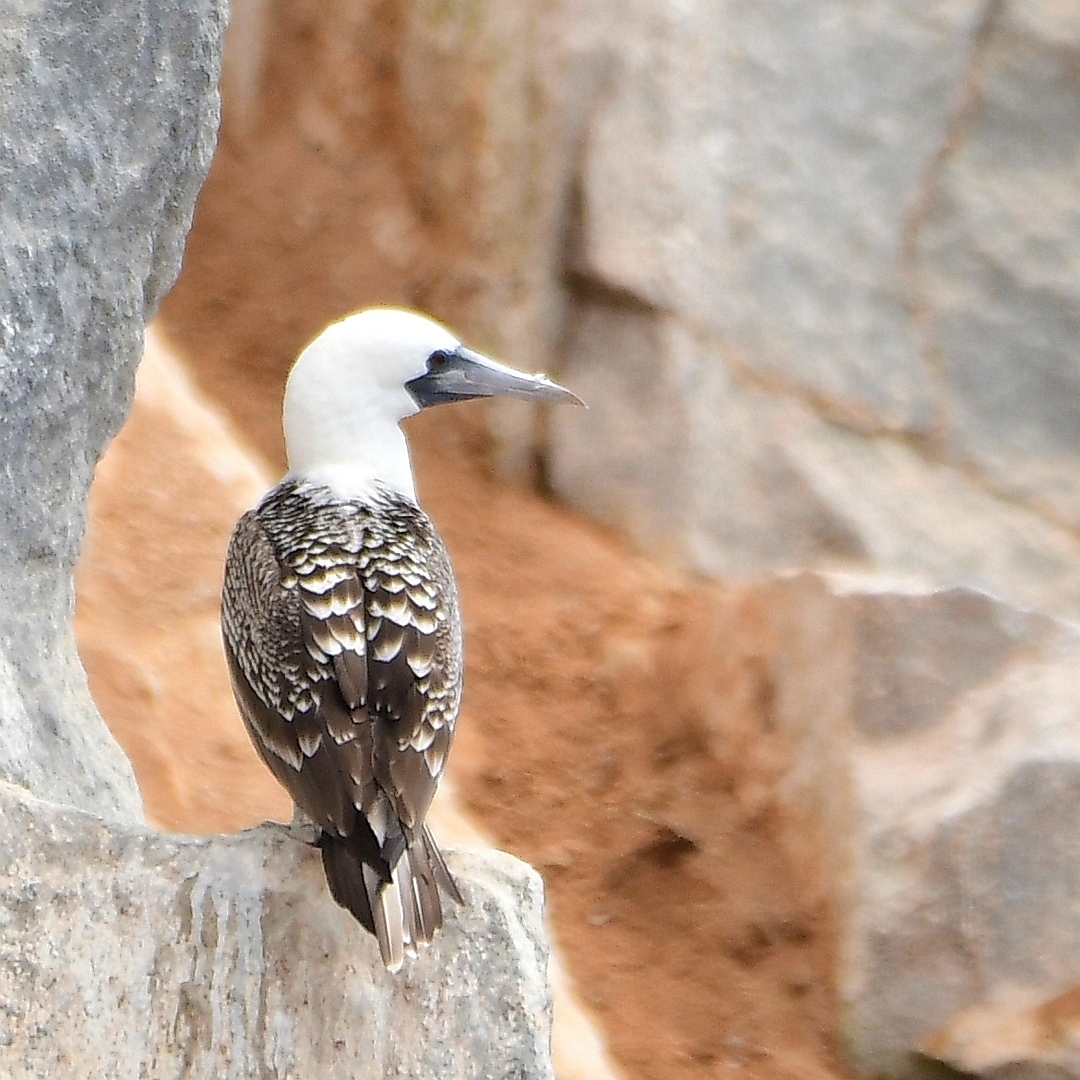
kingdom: Animalia
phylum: Chordata
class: Aves
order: Suliformes
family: Sulidae
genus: Sula
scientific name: Sula variegata
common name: Peruvian booby
